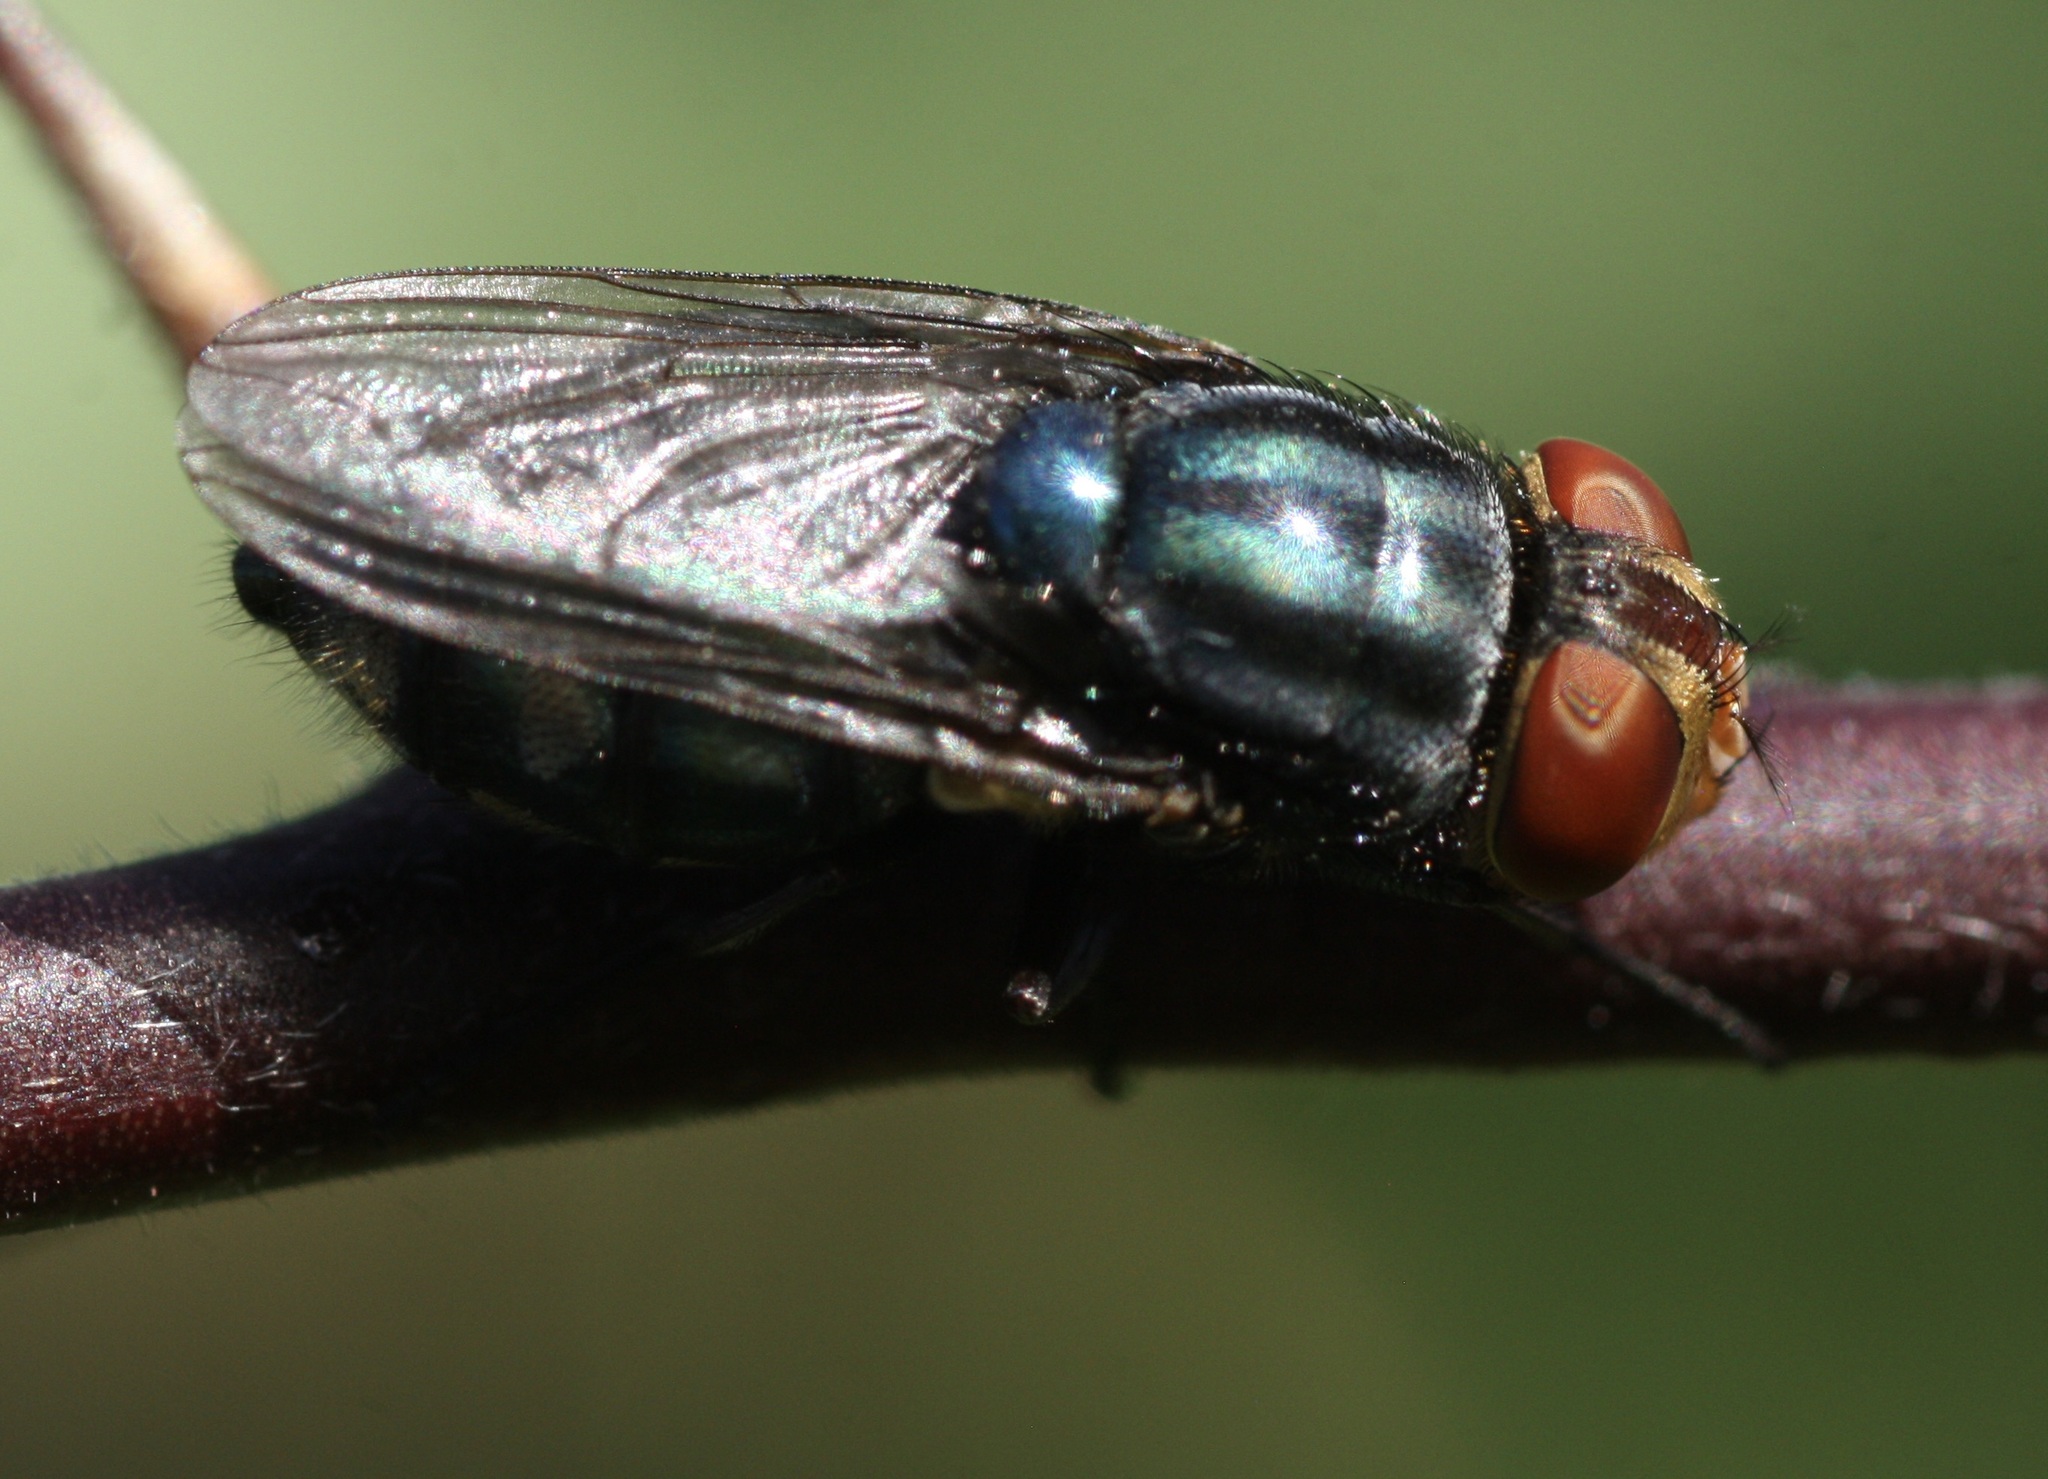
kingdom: Animalia
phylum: Arthropoda
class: Insecta
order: Diptera
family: Calliphoridae
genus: Cochliomyia
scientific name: Cochliomyia macellaria
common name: Secondary screwworm
